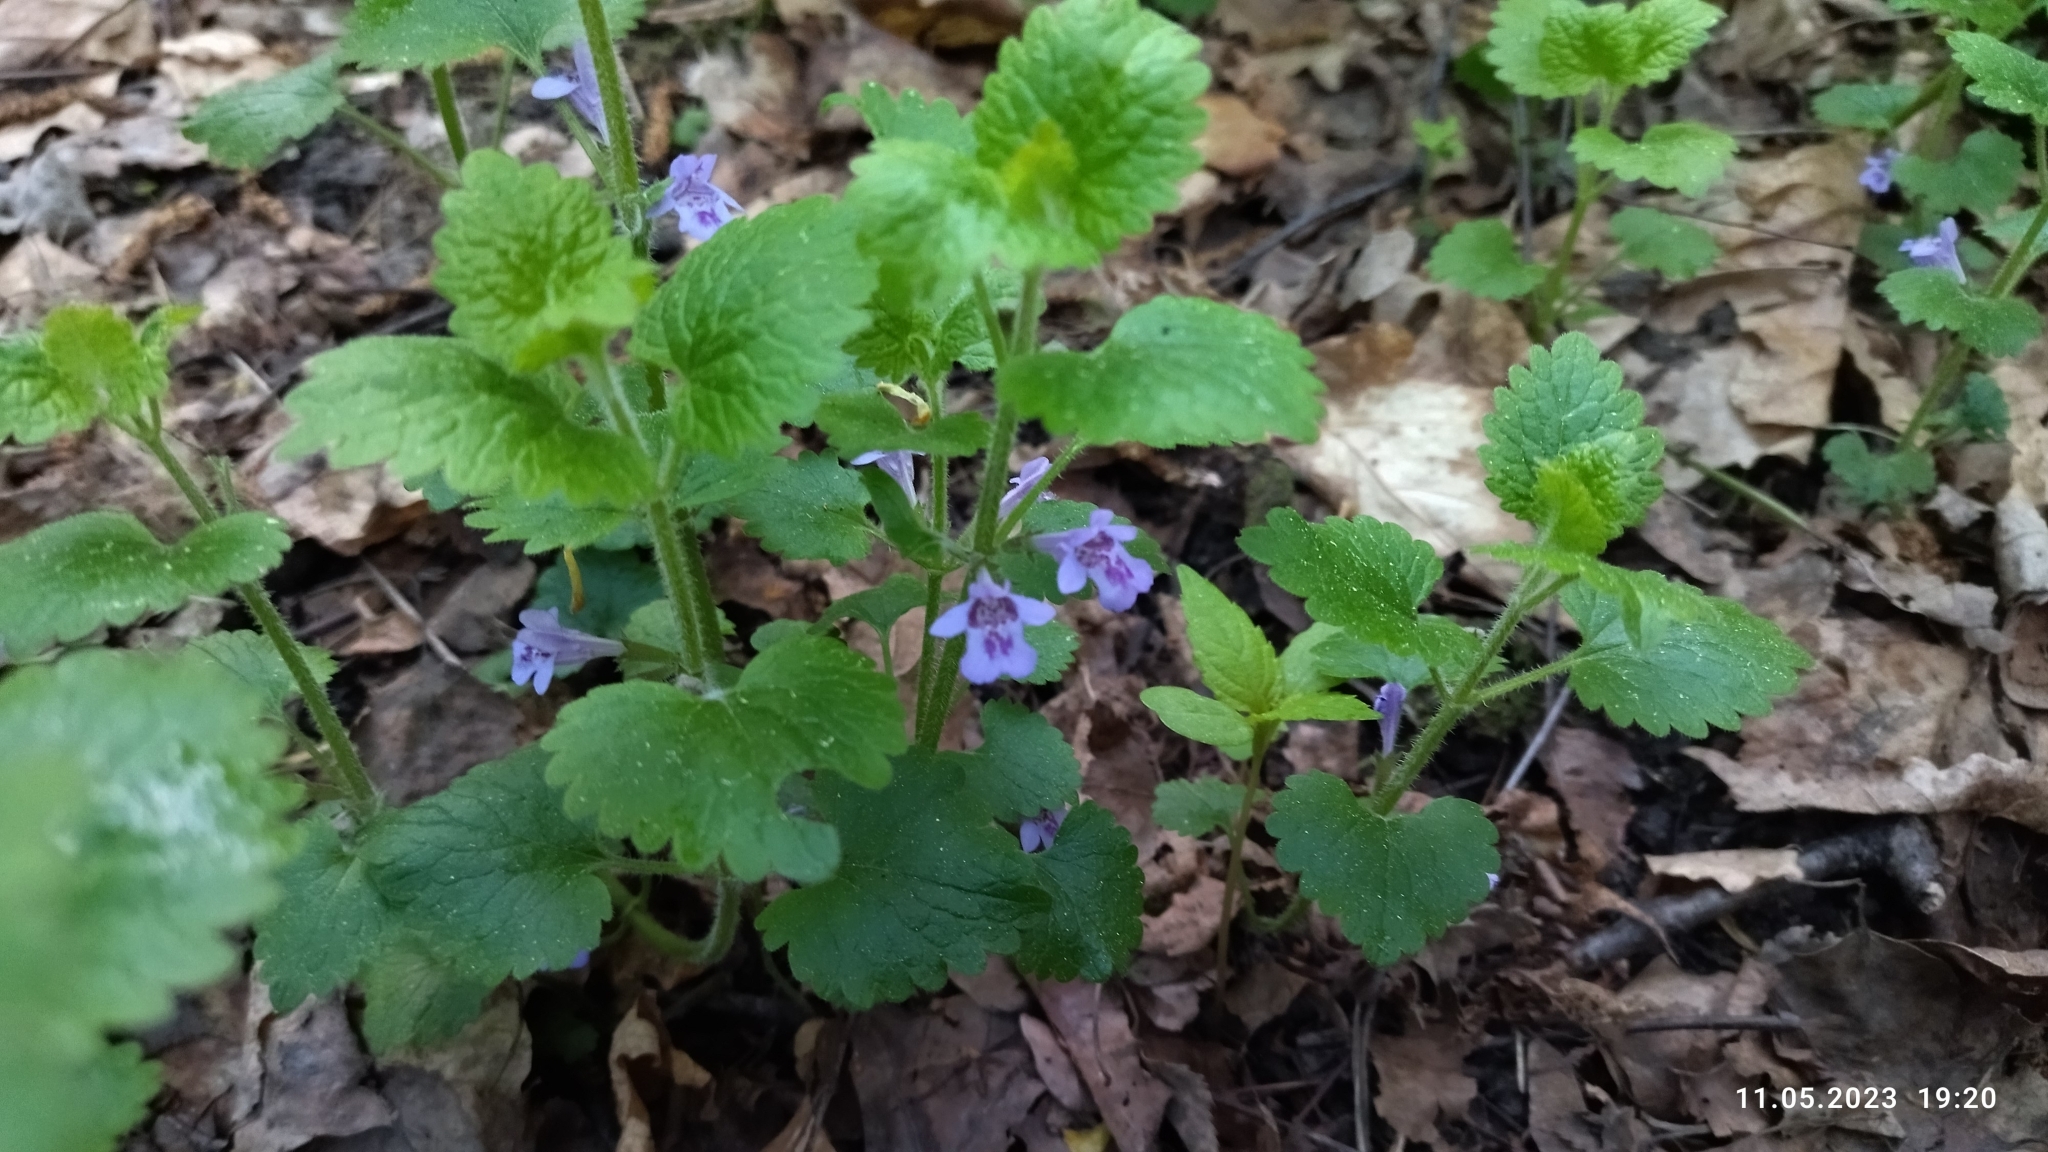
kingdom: Plantae
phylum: Tracheophyta
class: Magnoliopsida
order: Lamiales
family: Lamiaceae
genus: Glechoma
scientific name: Glechoma hederacea
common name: Ground ivy
